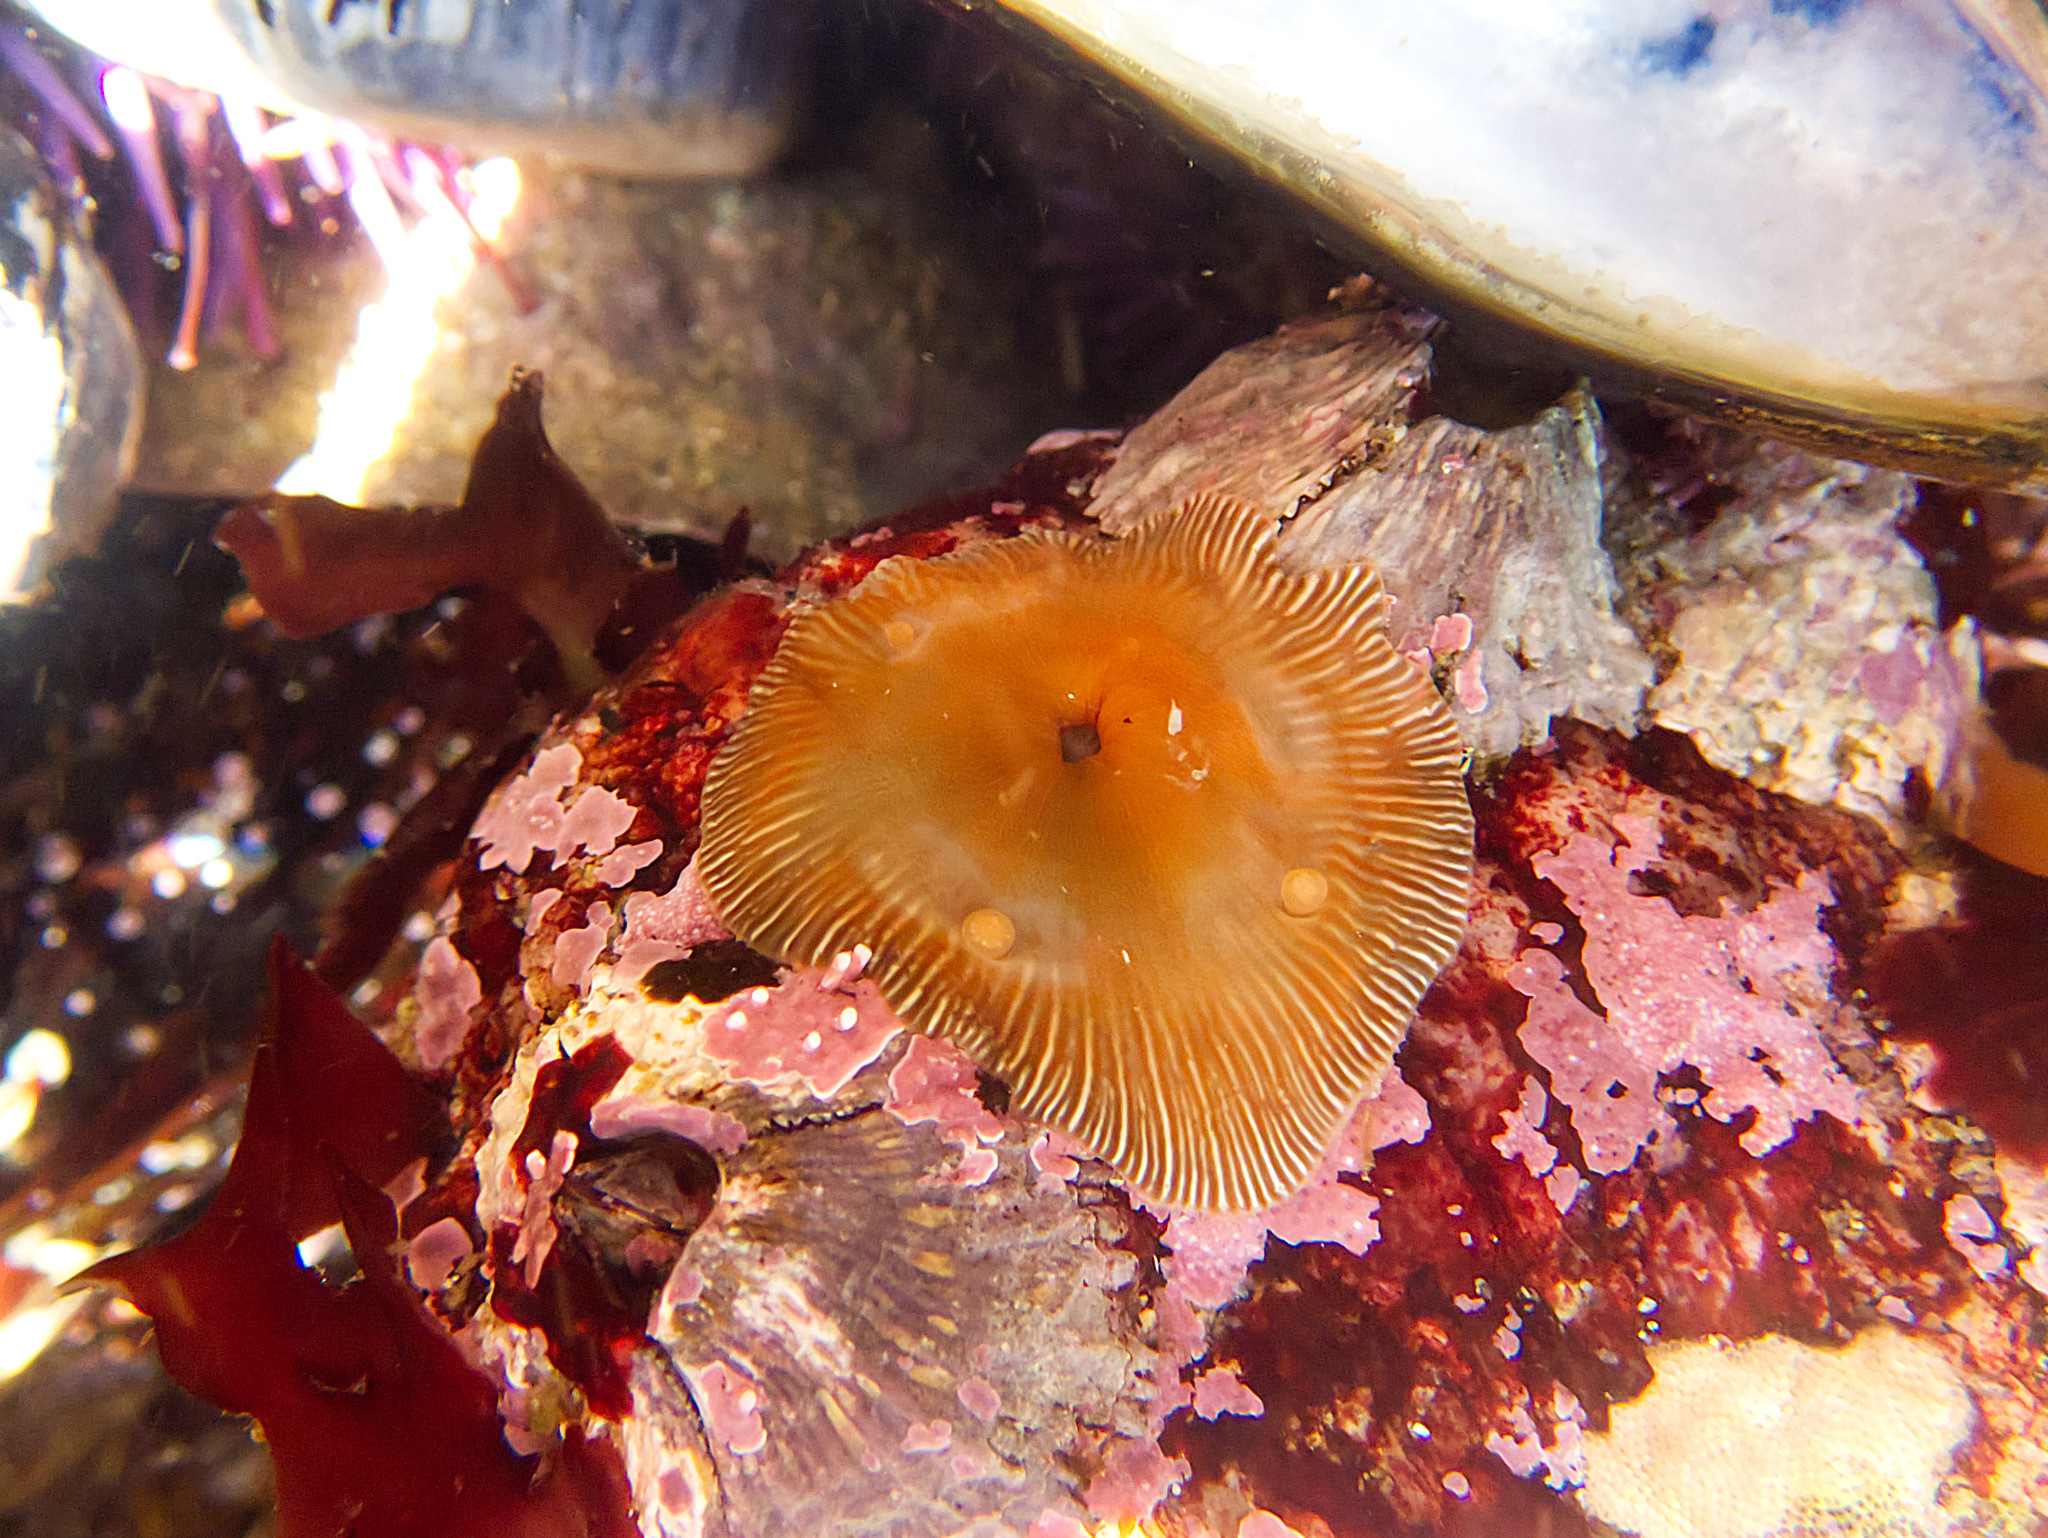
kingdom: Animalia
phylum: Cnidaria
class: Anthozoa
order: Actiniaria
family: Actiniidae
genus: Epiactis
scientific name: Epiactis prolifera
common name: Brooding anemone
